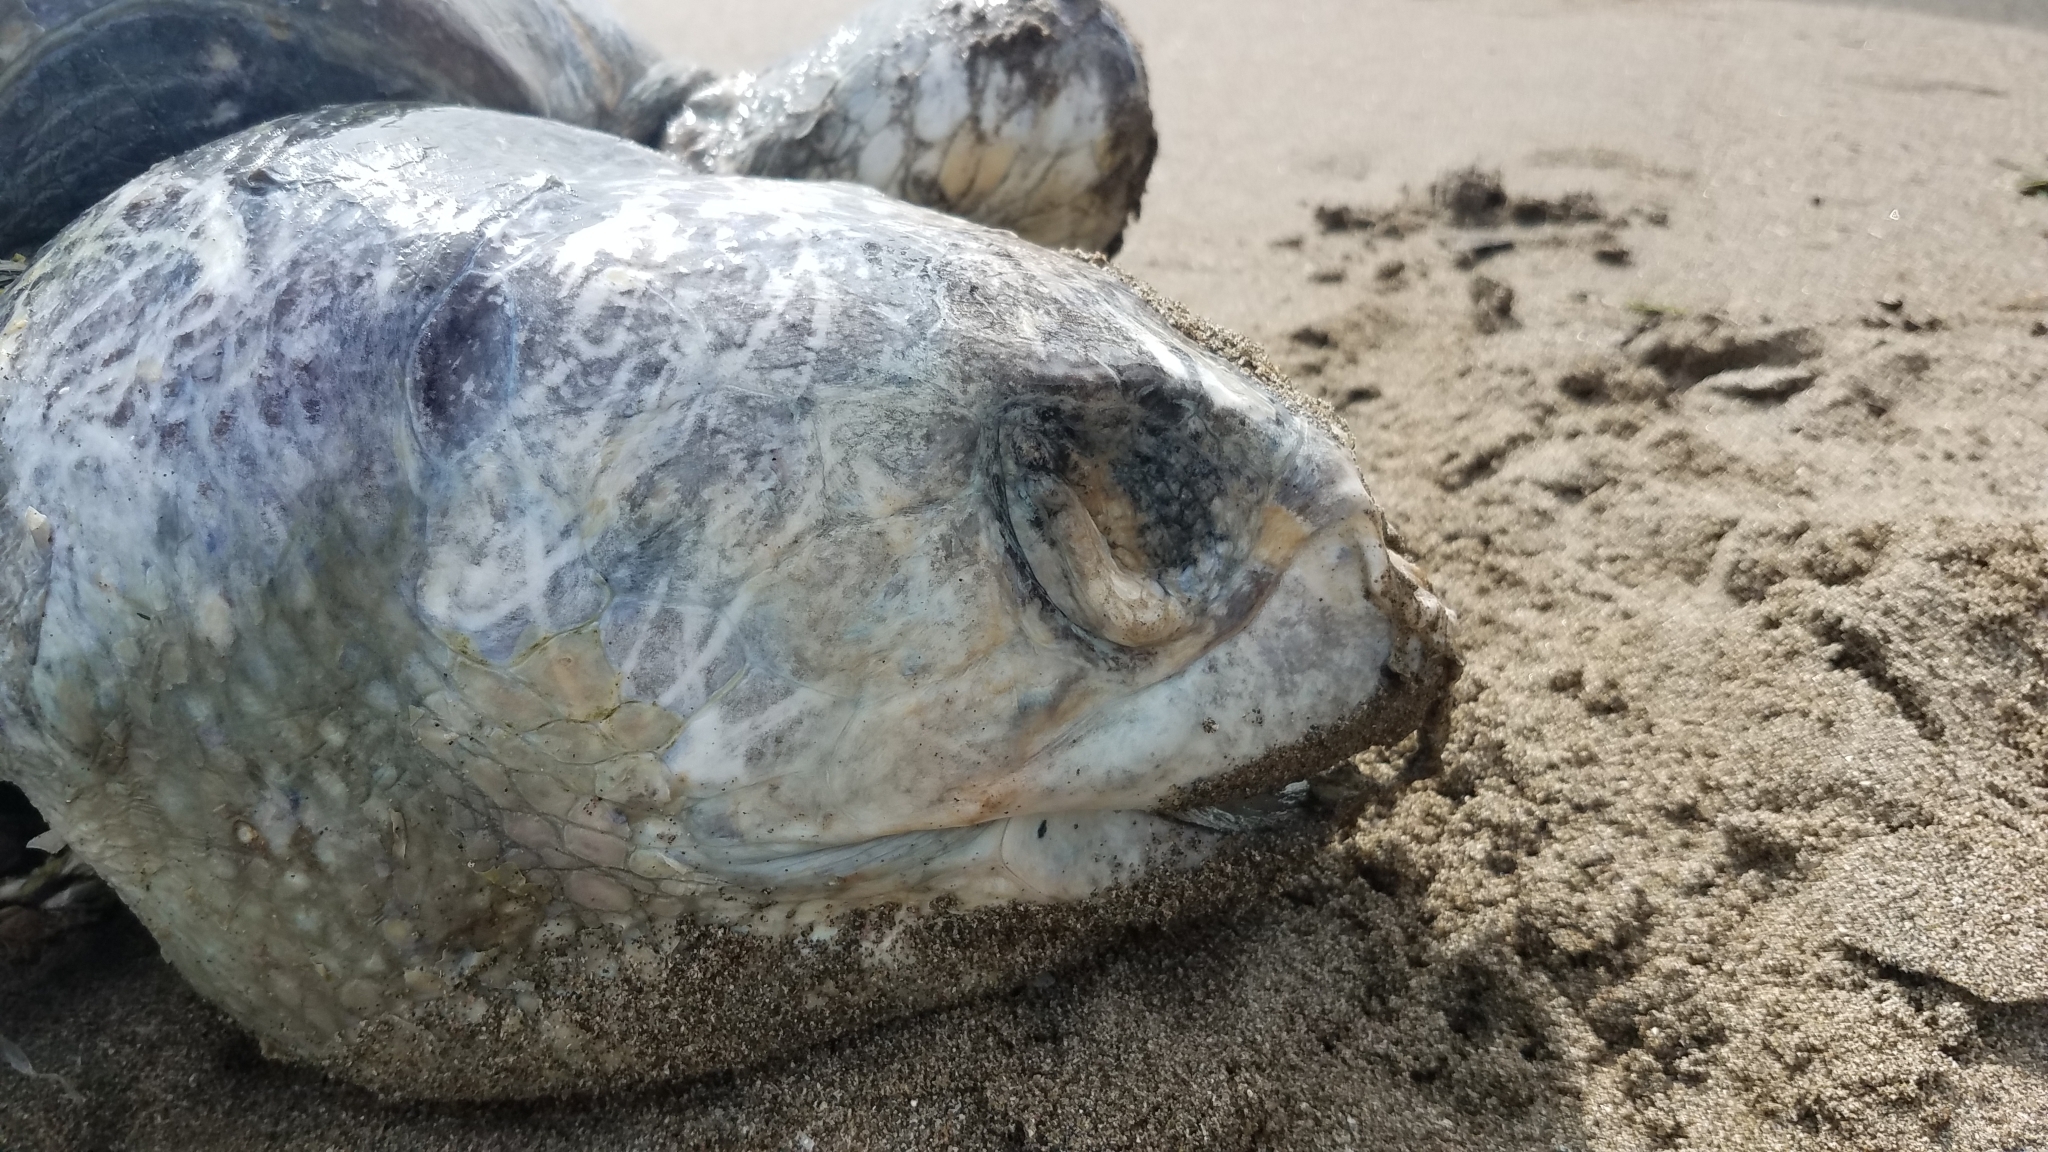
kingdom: Animalia
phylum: Chordata
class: Testudines
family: Cheloniidae
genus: Lepidochelys
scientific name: Lepidochelys olivacea
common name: Olive ridley
